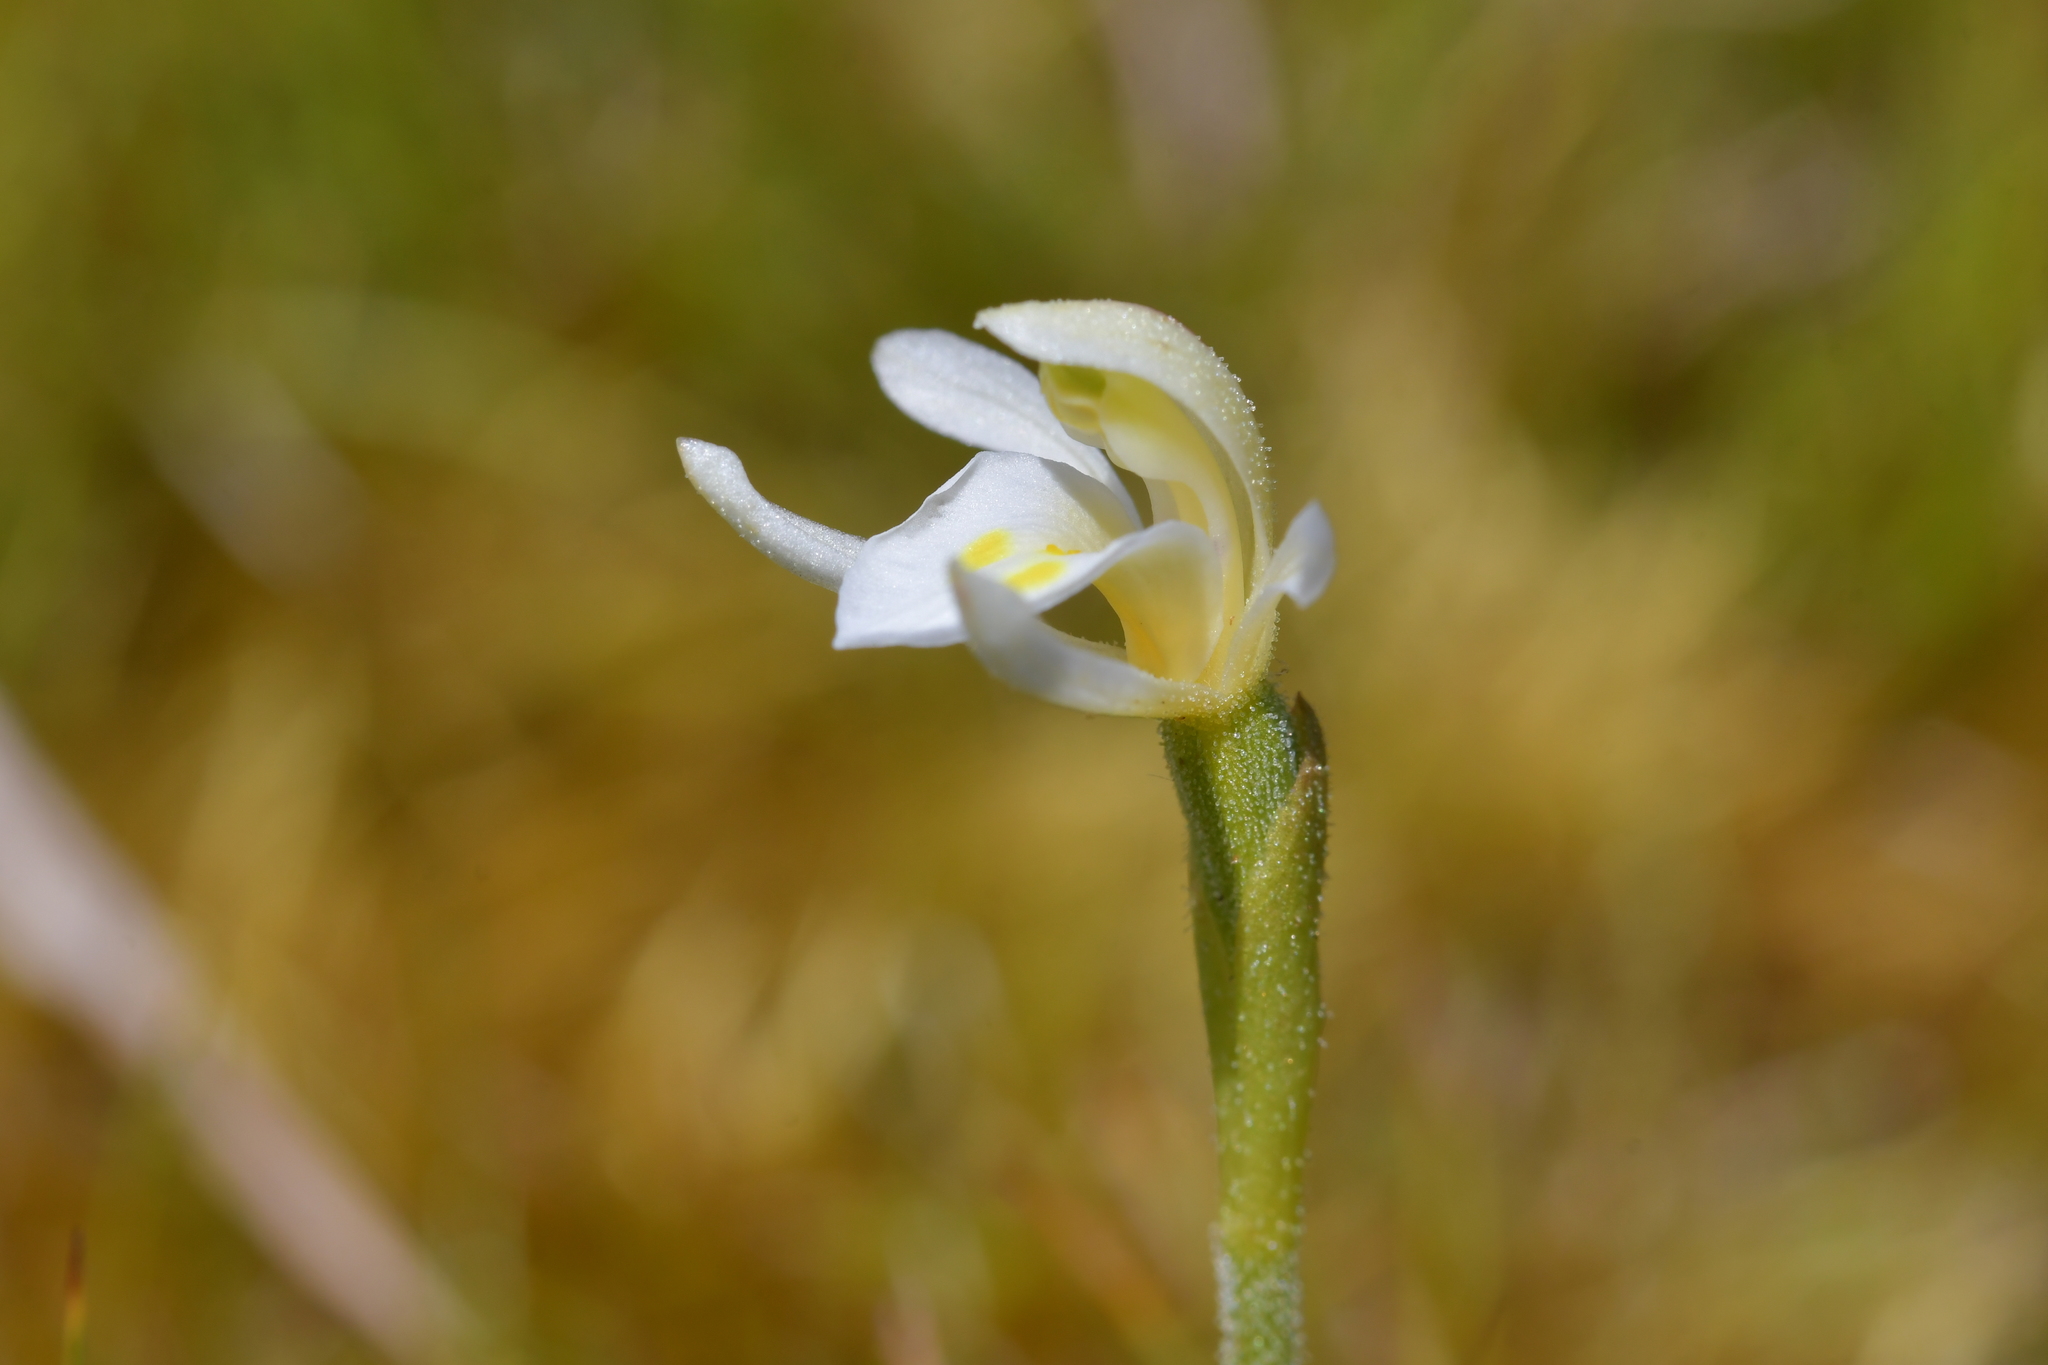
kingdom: Plantae
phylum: Tracheophyta
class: Liliopsida
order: Asparagales
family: Orchidaceae
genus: Aporostylis
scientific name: Aporostylis bifolia
